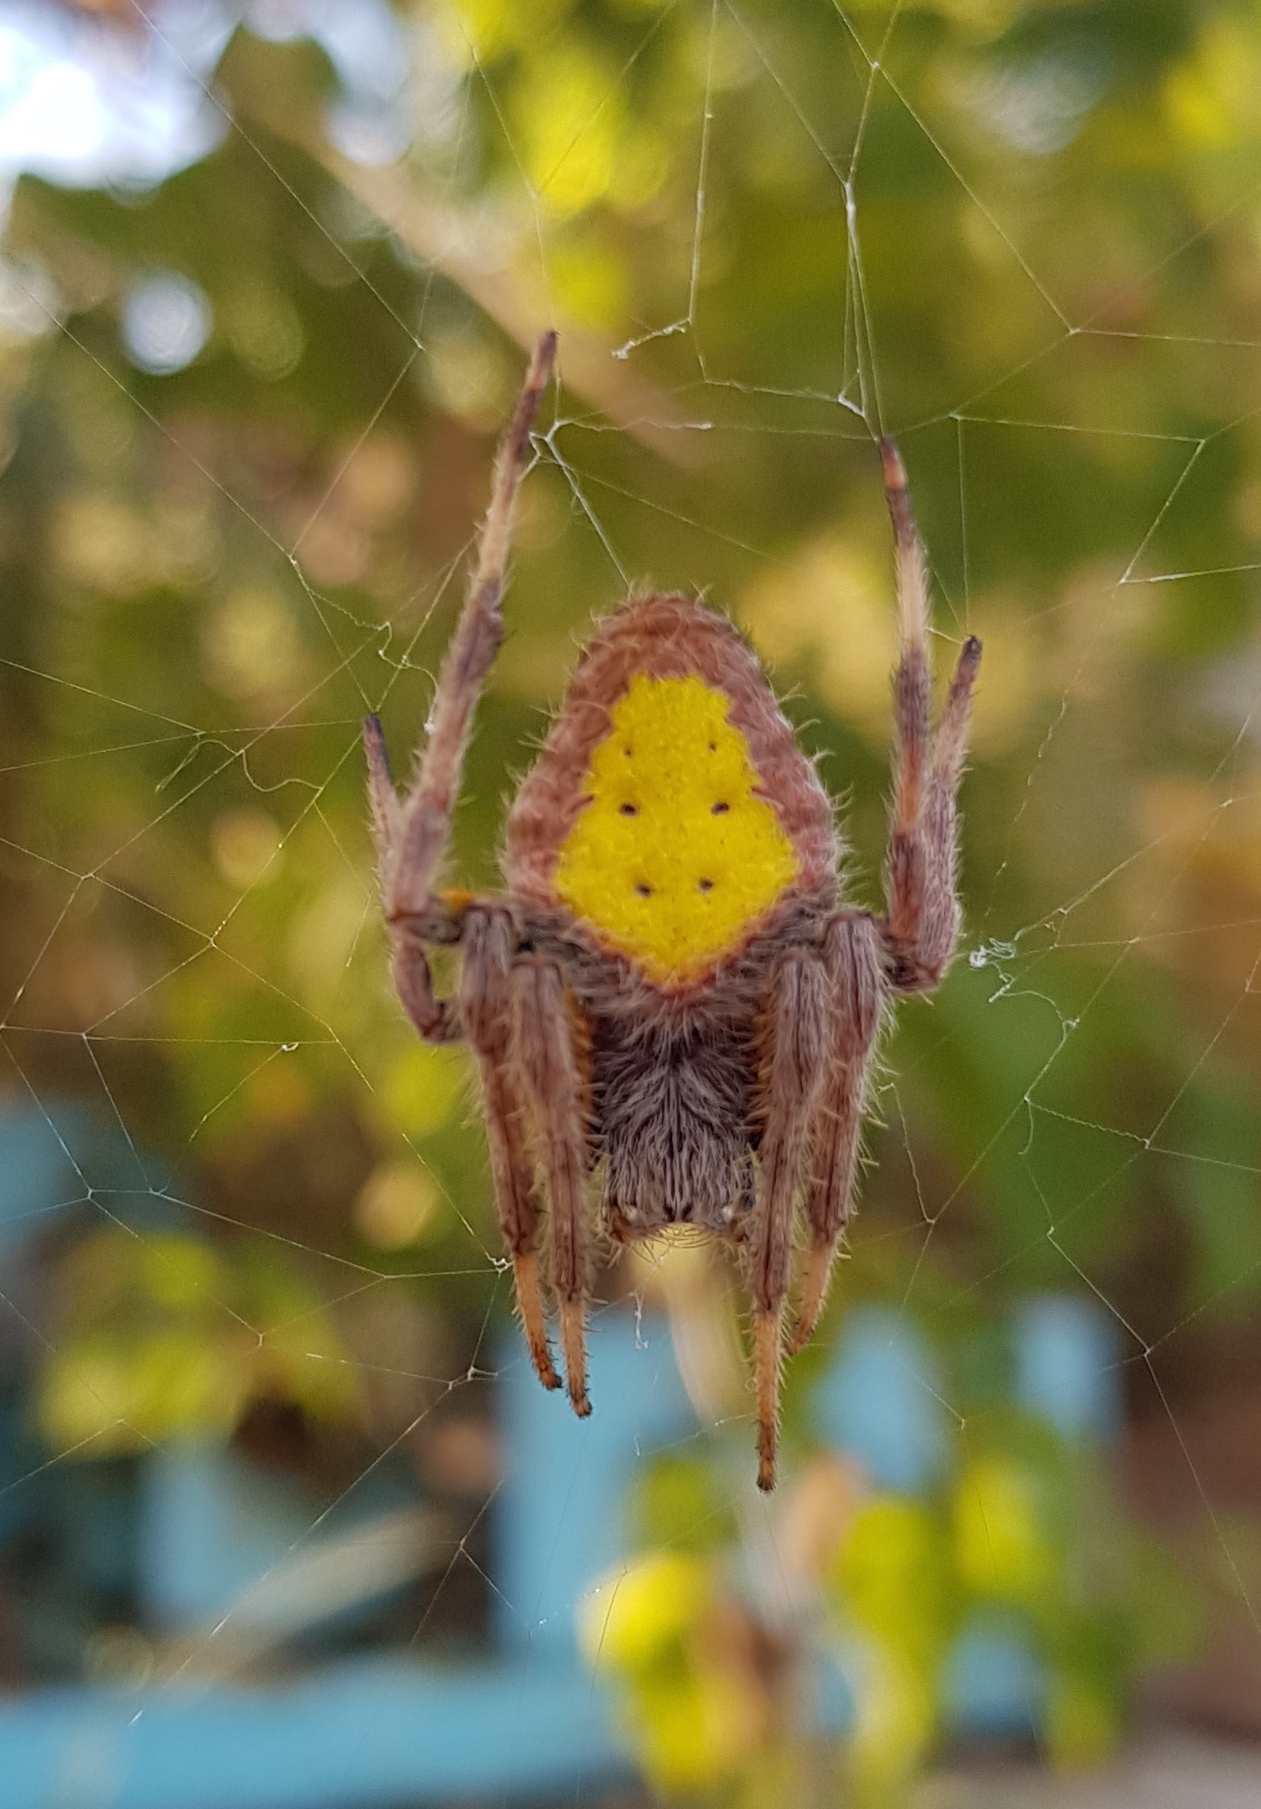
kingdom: Animalia
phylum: Arthropoda
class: Arachnida
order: Araneae
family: Araneidae
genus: Eriophora
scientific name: Eriophora ravilla
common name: Orb weavers
